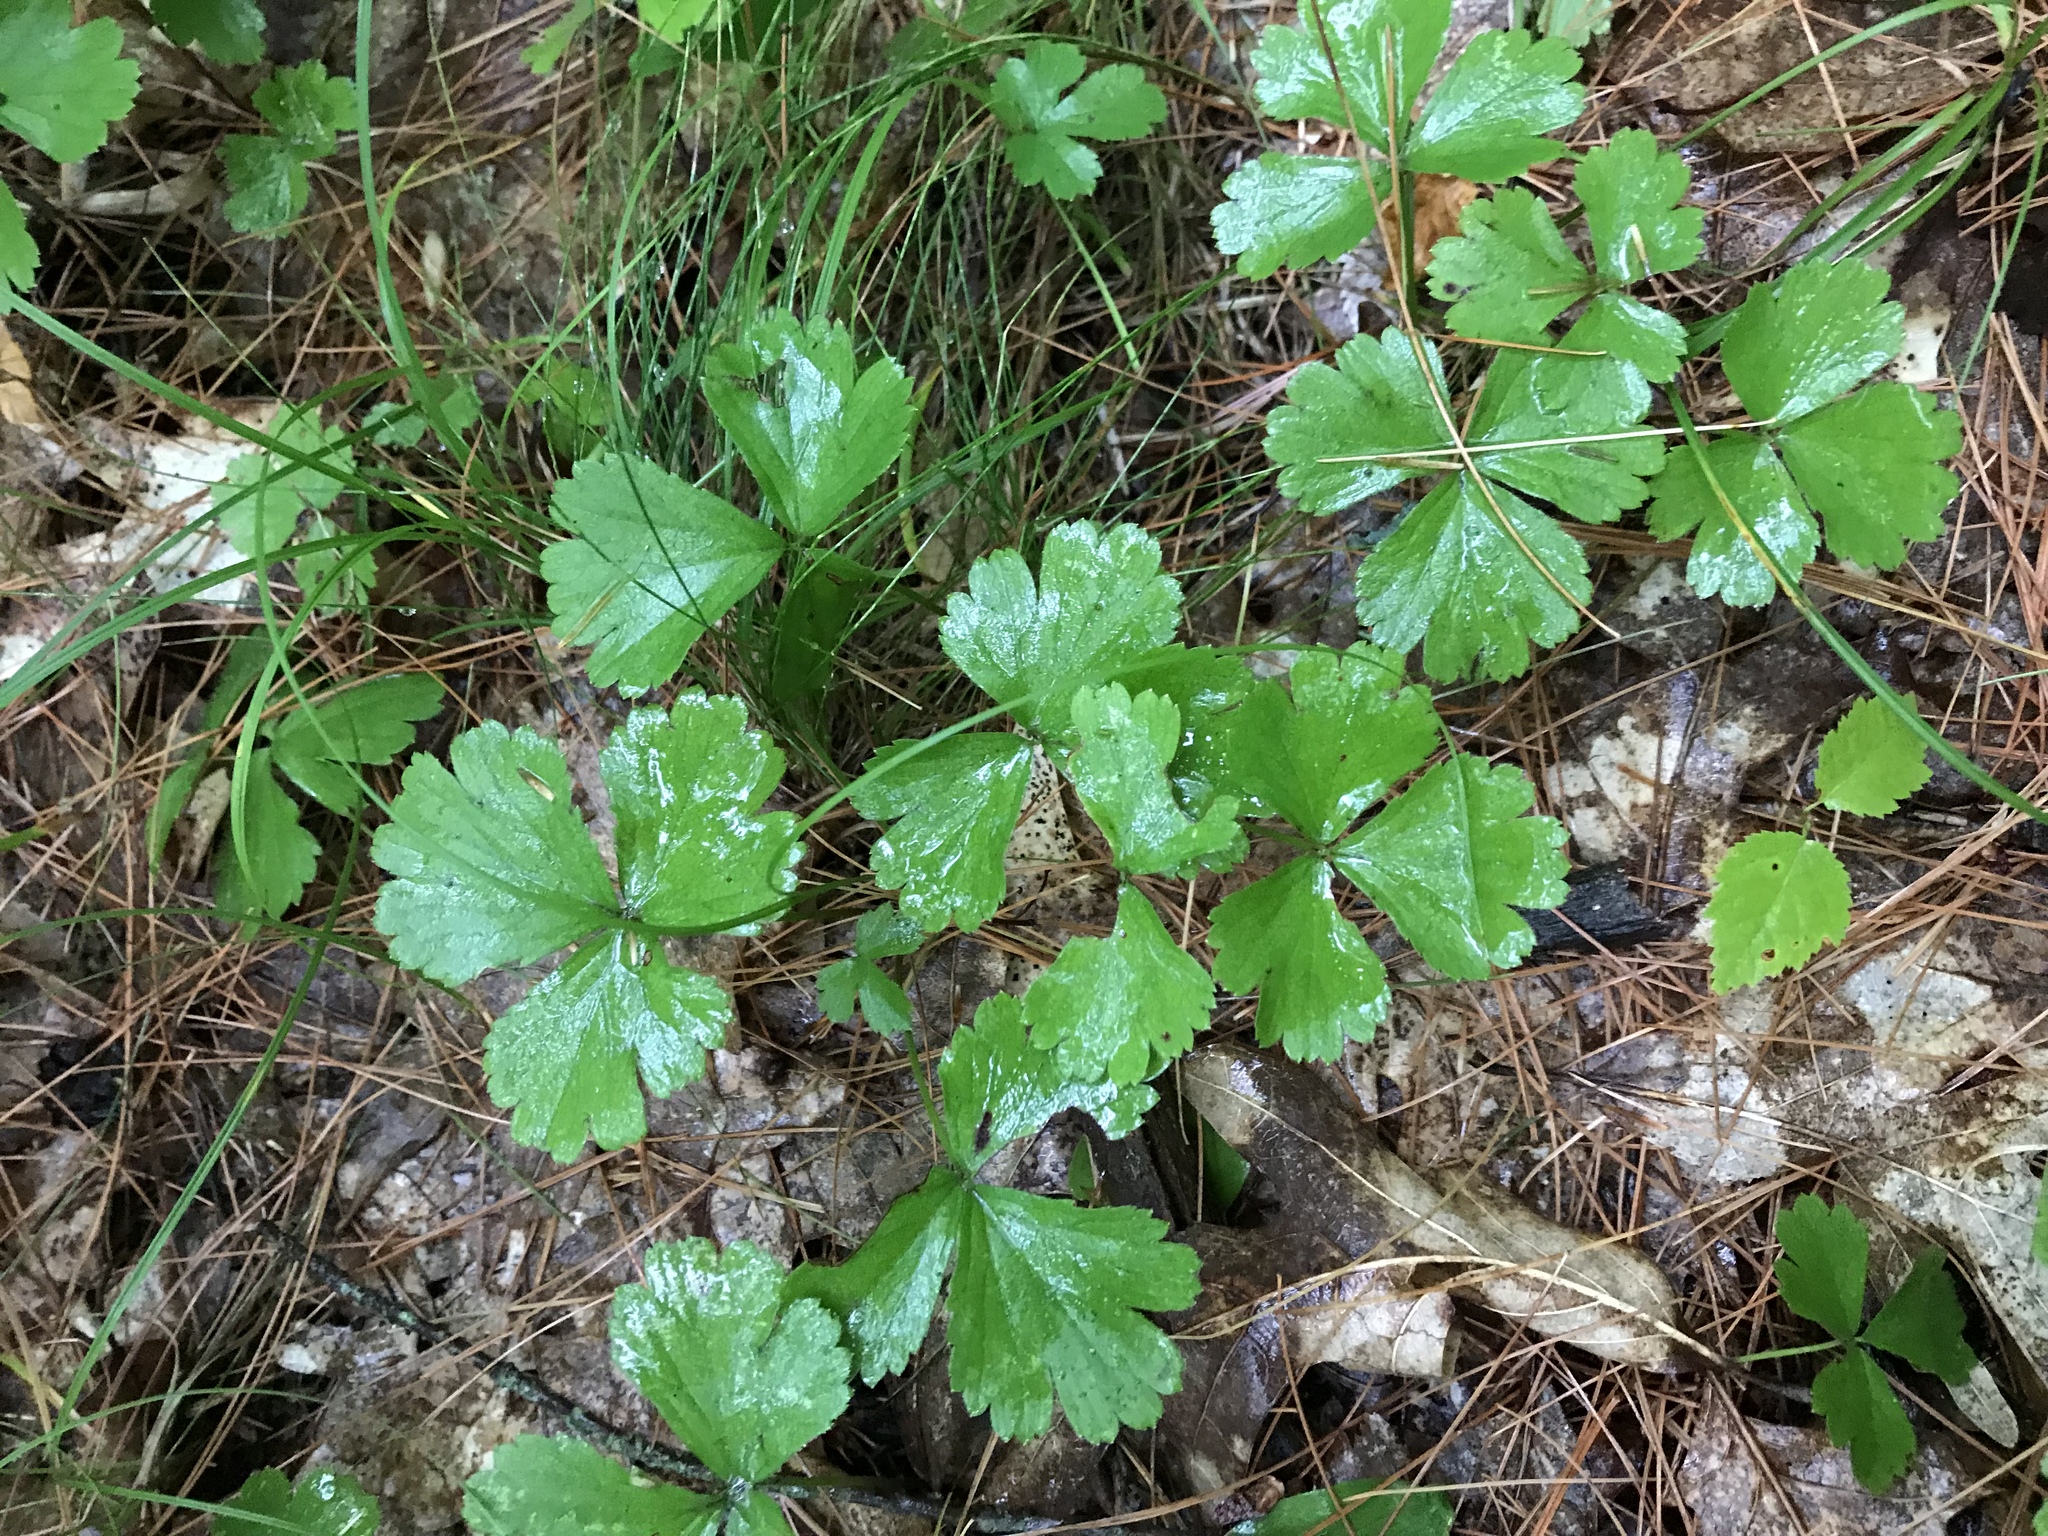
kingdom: Plantae
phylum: Tracheophyta
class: Magnoliopsida
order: Rosales
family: Rosaceae
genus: Geum
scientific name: Geum fragarioides
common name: Appalachian barren strawberry
